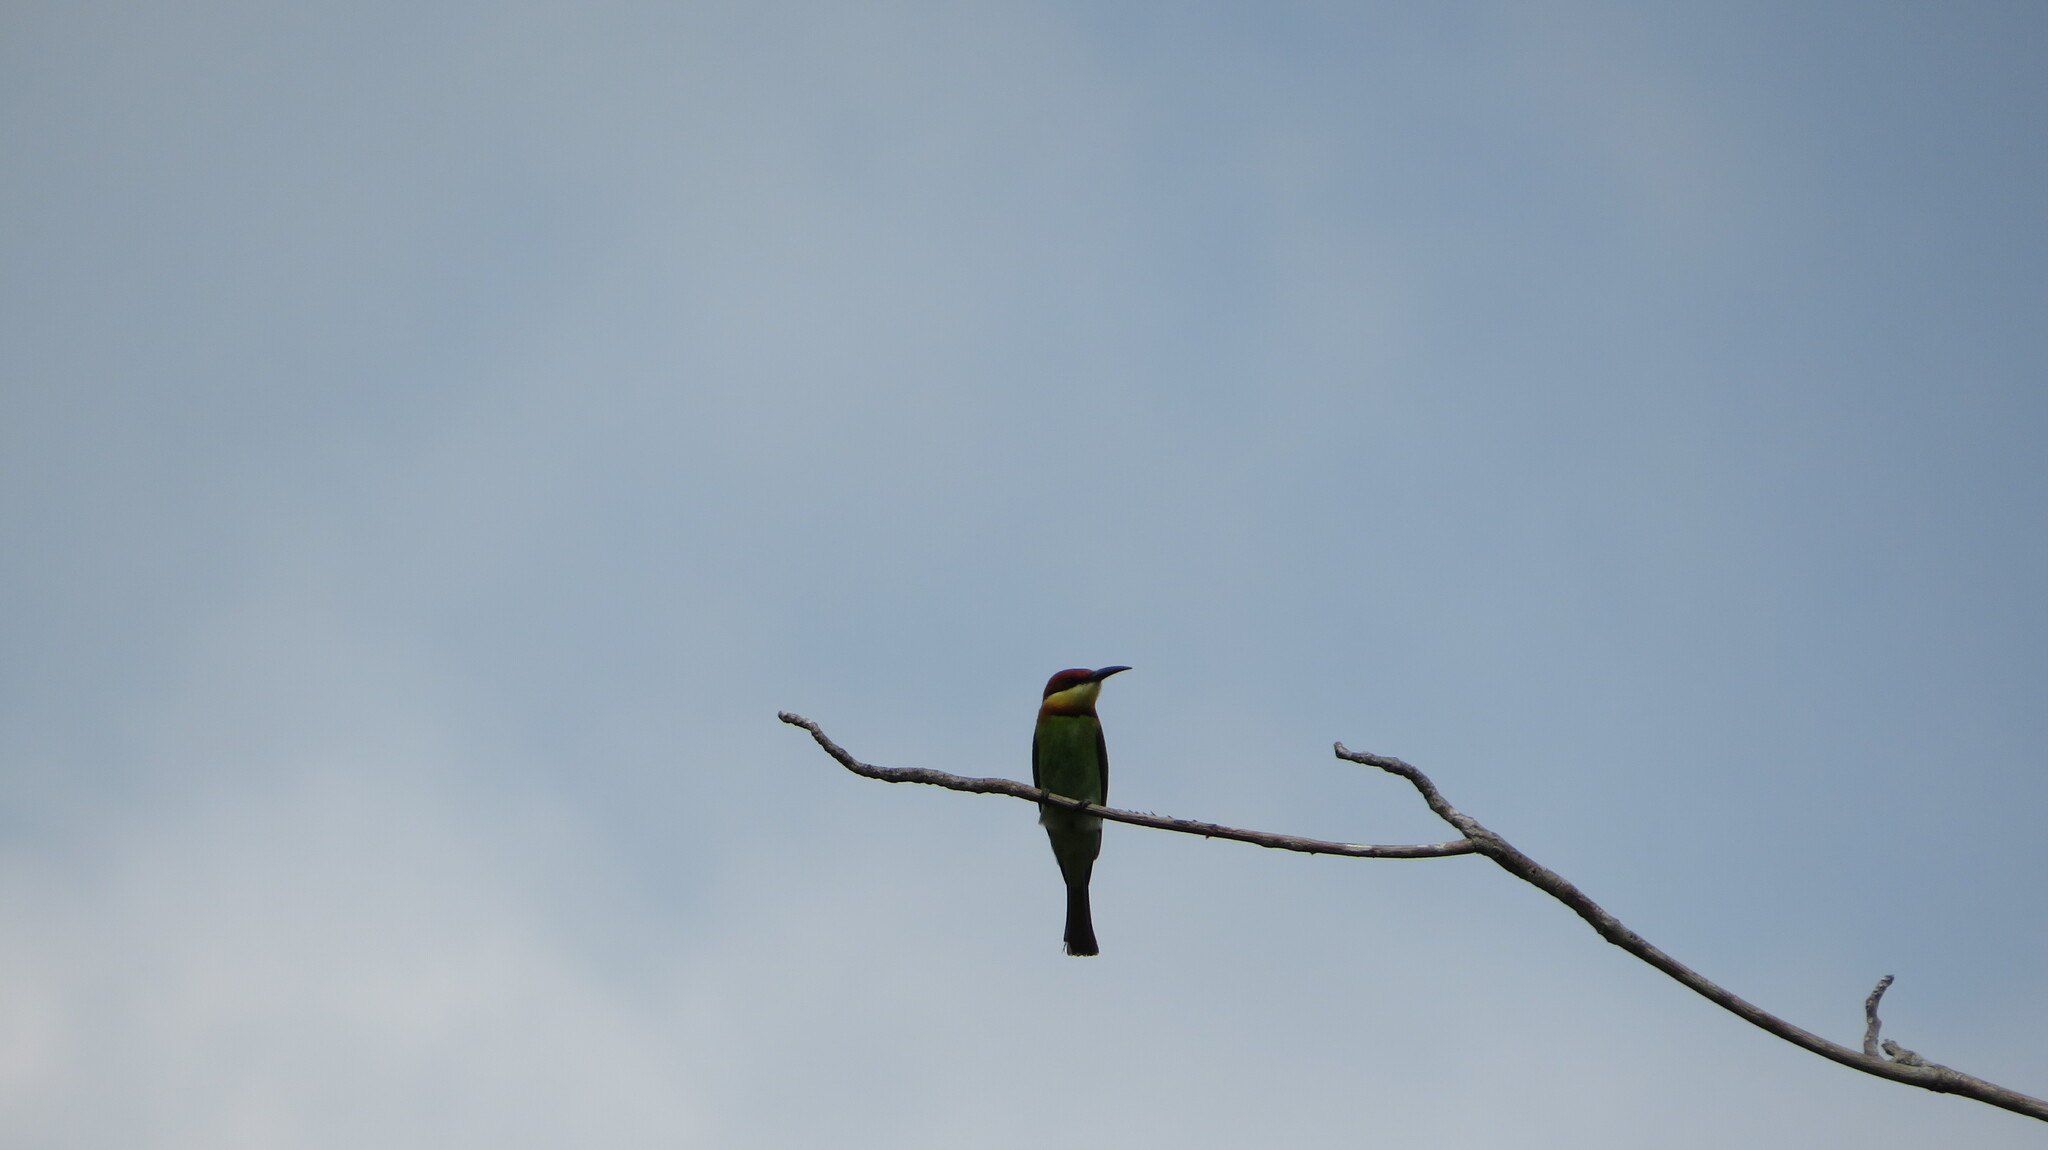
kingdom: Animalia
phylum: Chordata
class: Aves
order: Coraciiformes
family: Meropidae
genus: Merops
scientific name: Merops leschenaulti
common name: Chestnut-headed bee-eater
